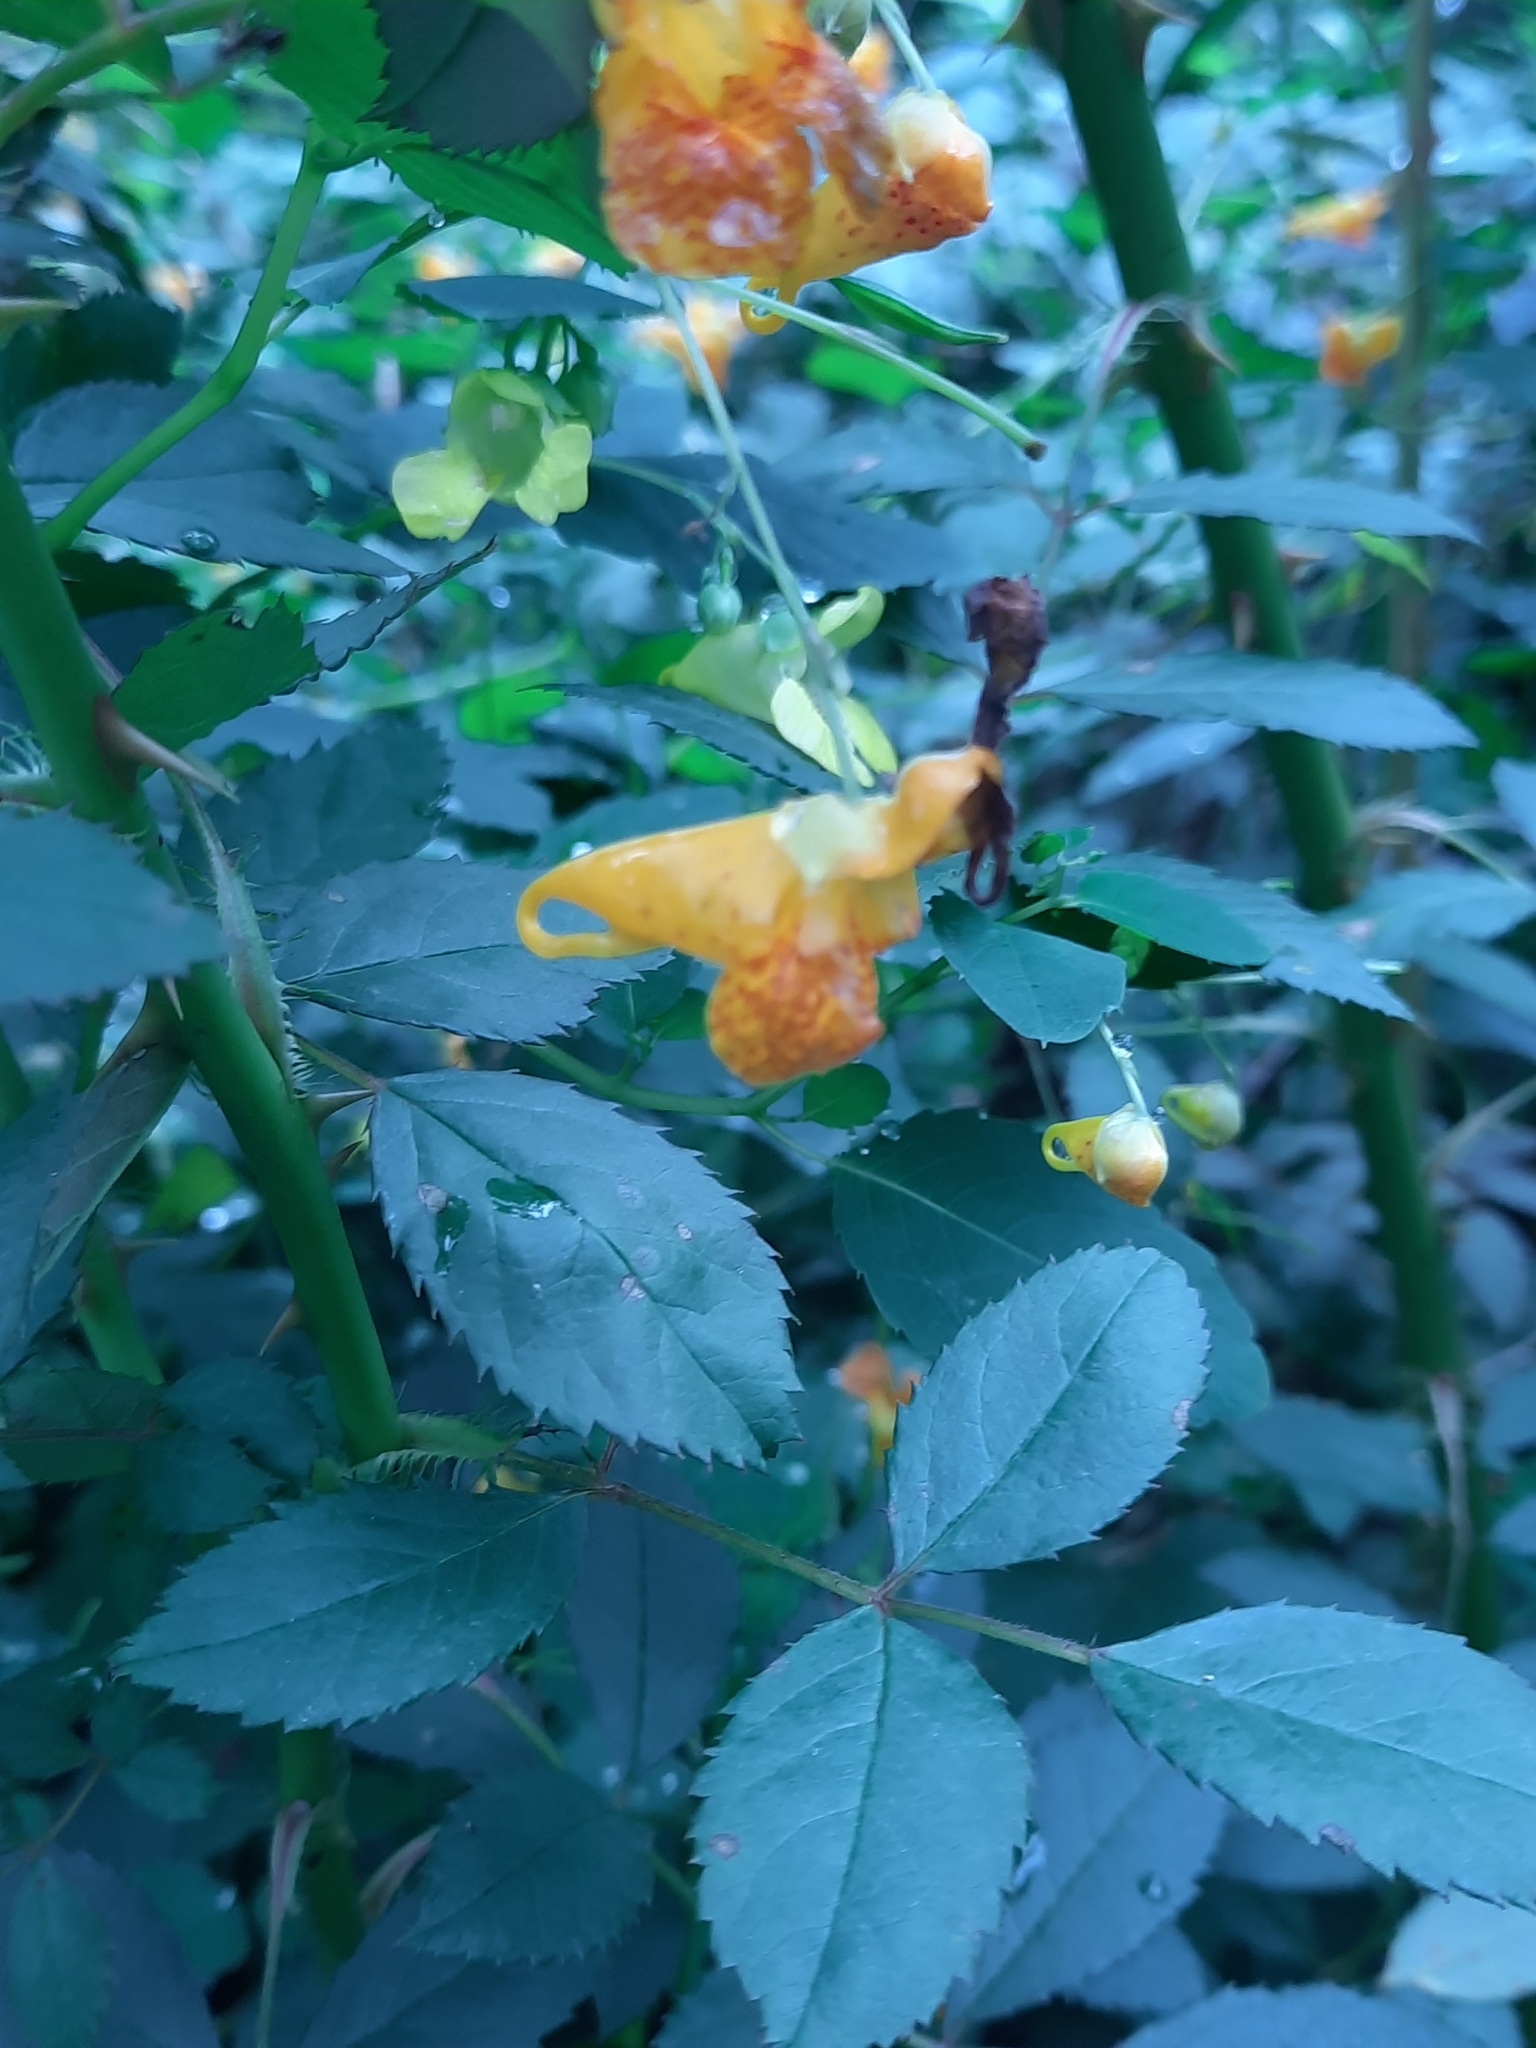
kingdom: Plantae
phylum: Tracheophyta
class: Magnoliopsida
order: Ericales
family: Balsaminaceae
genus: Impatiens
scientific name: Impatiens capensis
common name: Orange balsam
